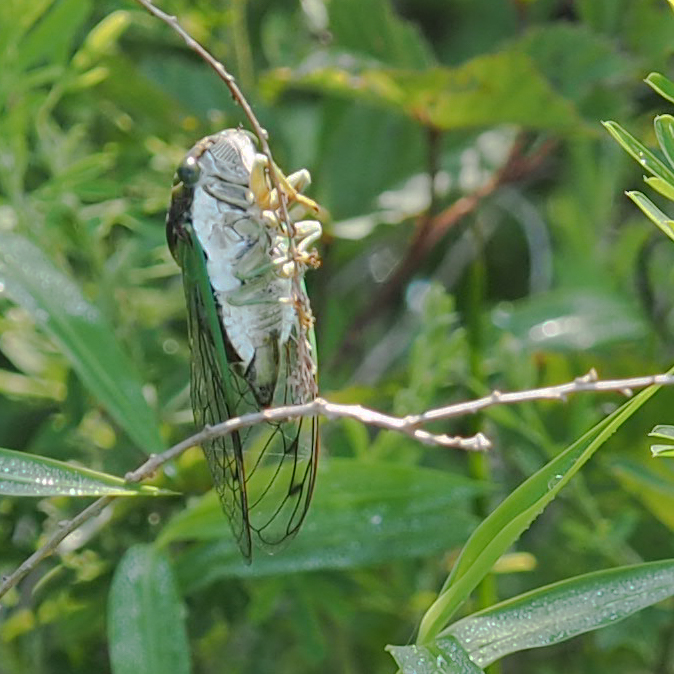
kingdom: Animalia
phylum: Arthropoda
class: Insecta
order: Hemiptera
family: Cicadidae
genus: Neotibicen
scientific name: Neotibicen tibicen
